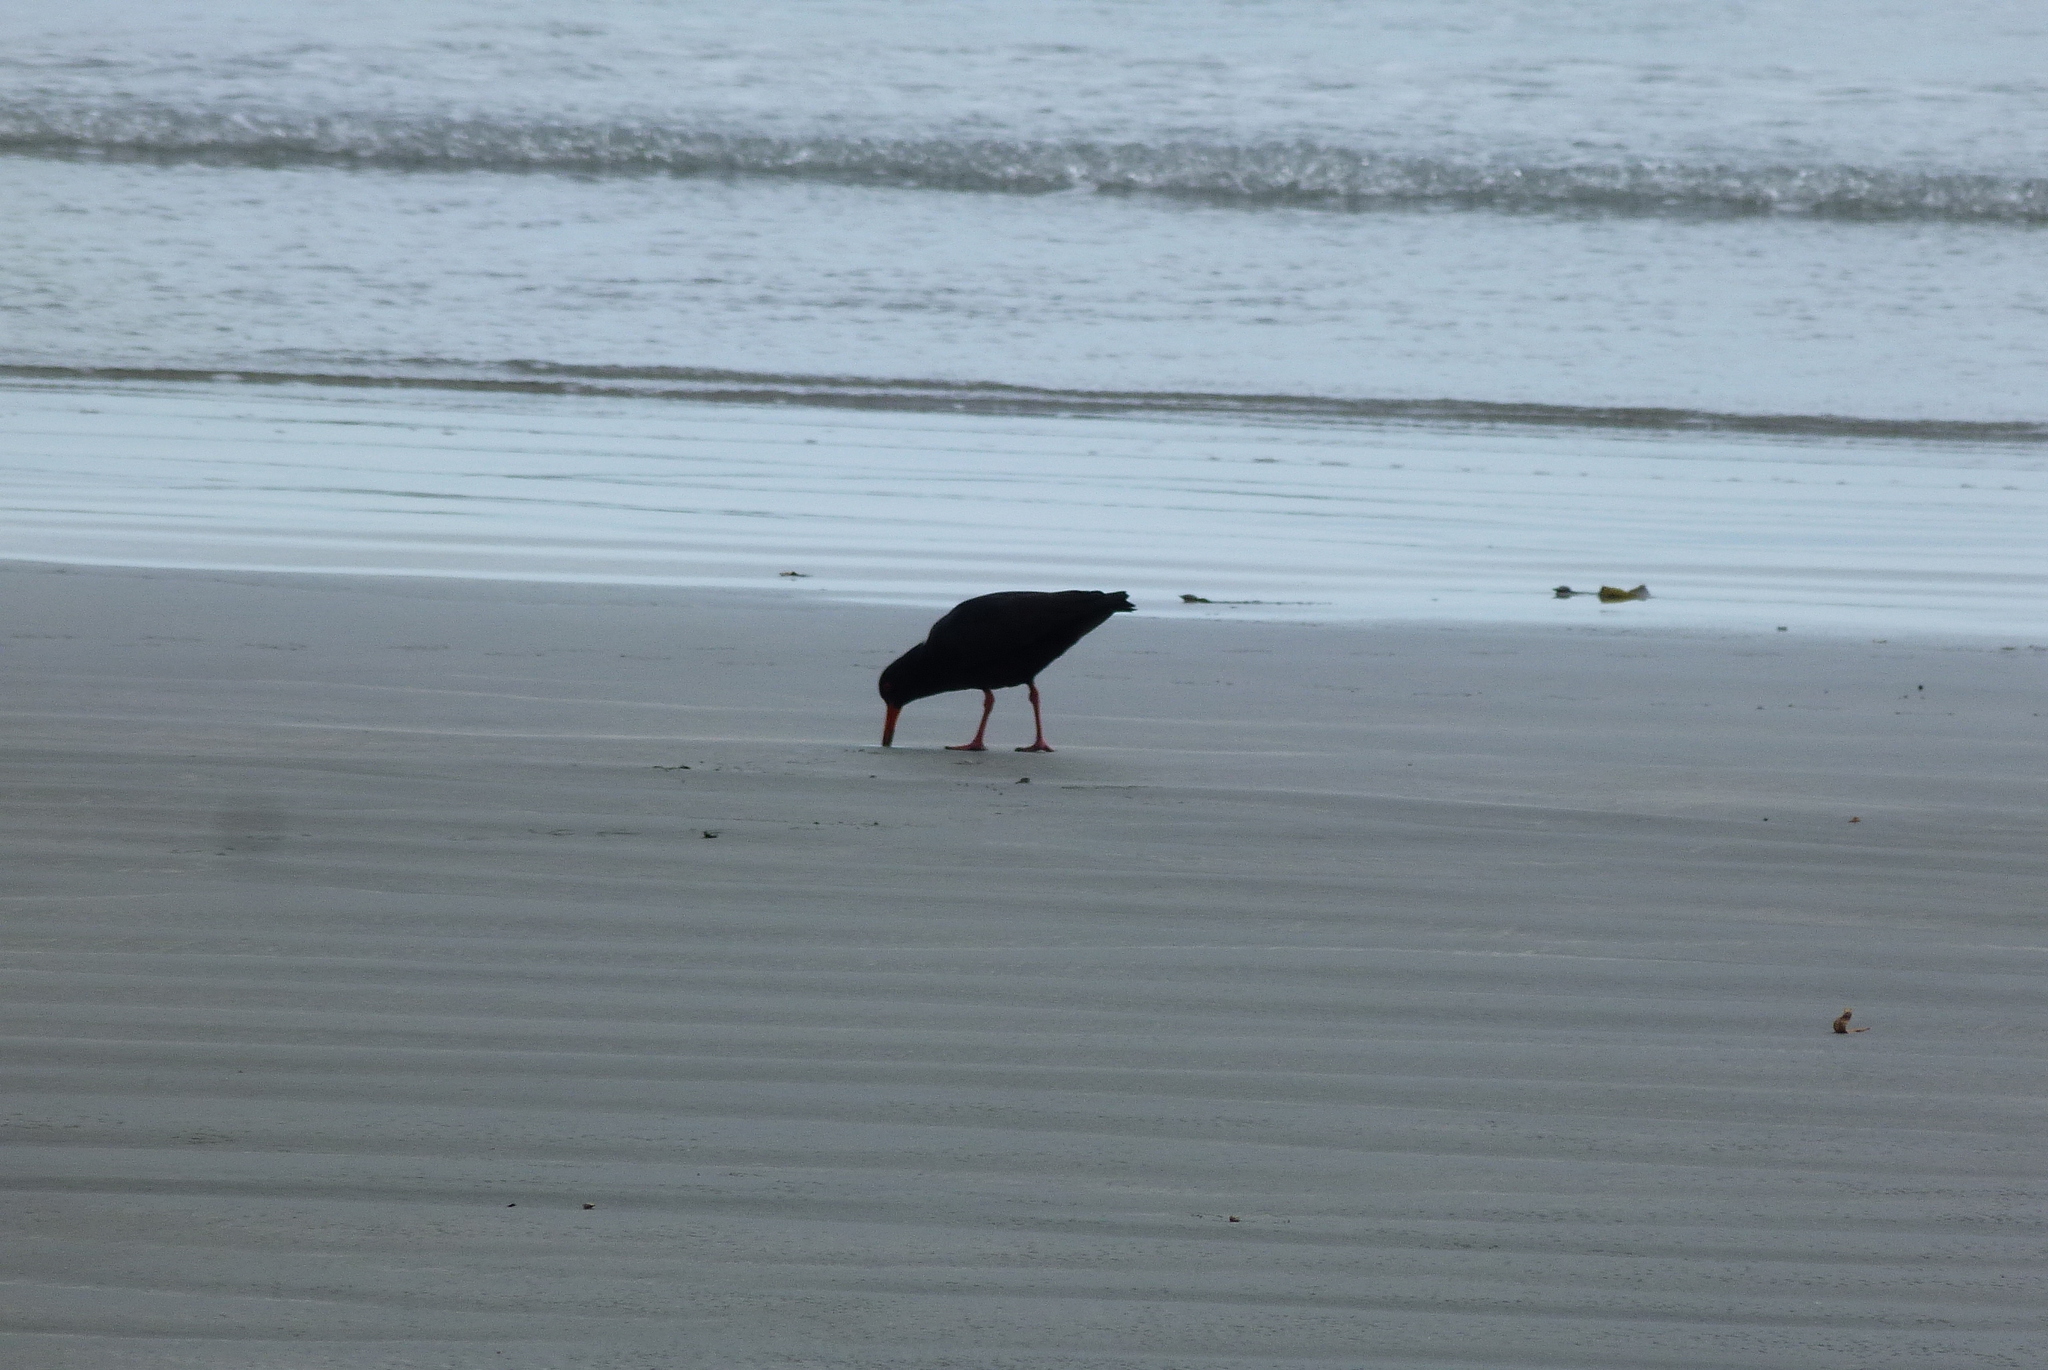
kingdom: Animalia
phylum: Chordata
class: Aves
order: Charadriiformes
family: Haematopodidae
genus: Haematopus
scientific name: Haematopus unicolor
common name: Variable oystercatcher
